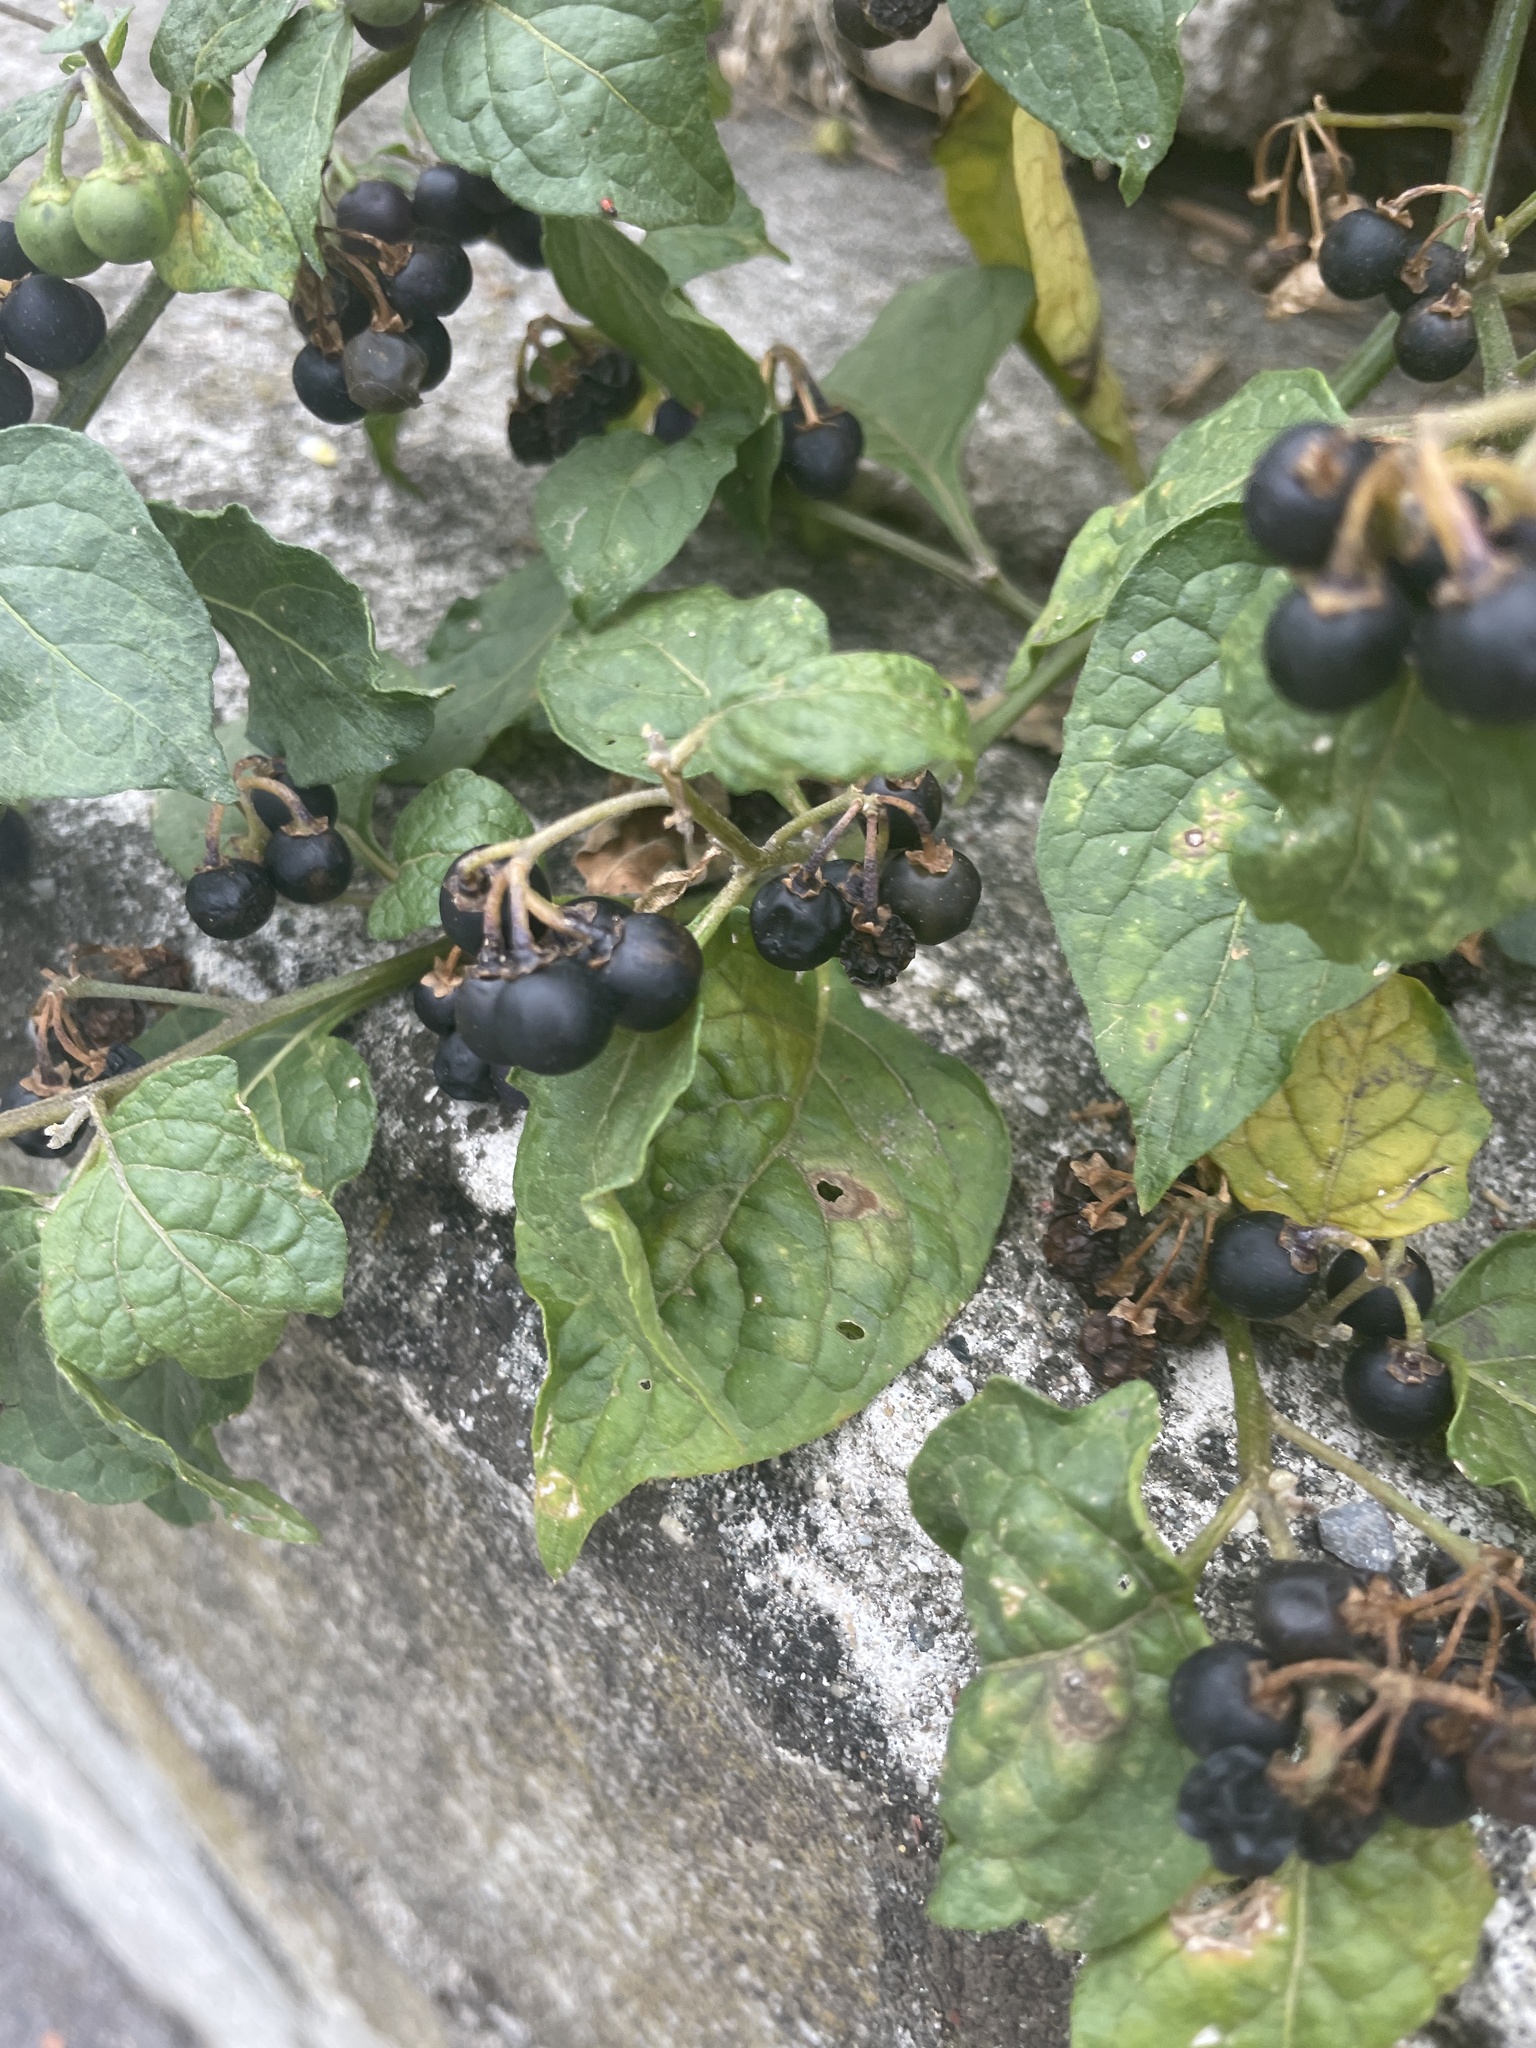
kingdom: Plantae
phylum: Tracheophyta
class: Magnoliopsida
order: Solanales
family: Solanaceae
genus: Solanum
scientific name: Solanum nigrum
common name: Black nightshade
